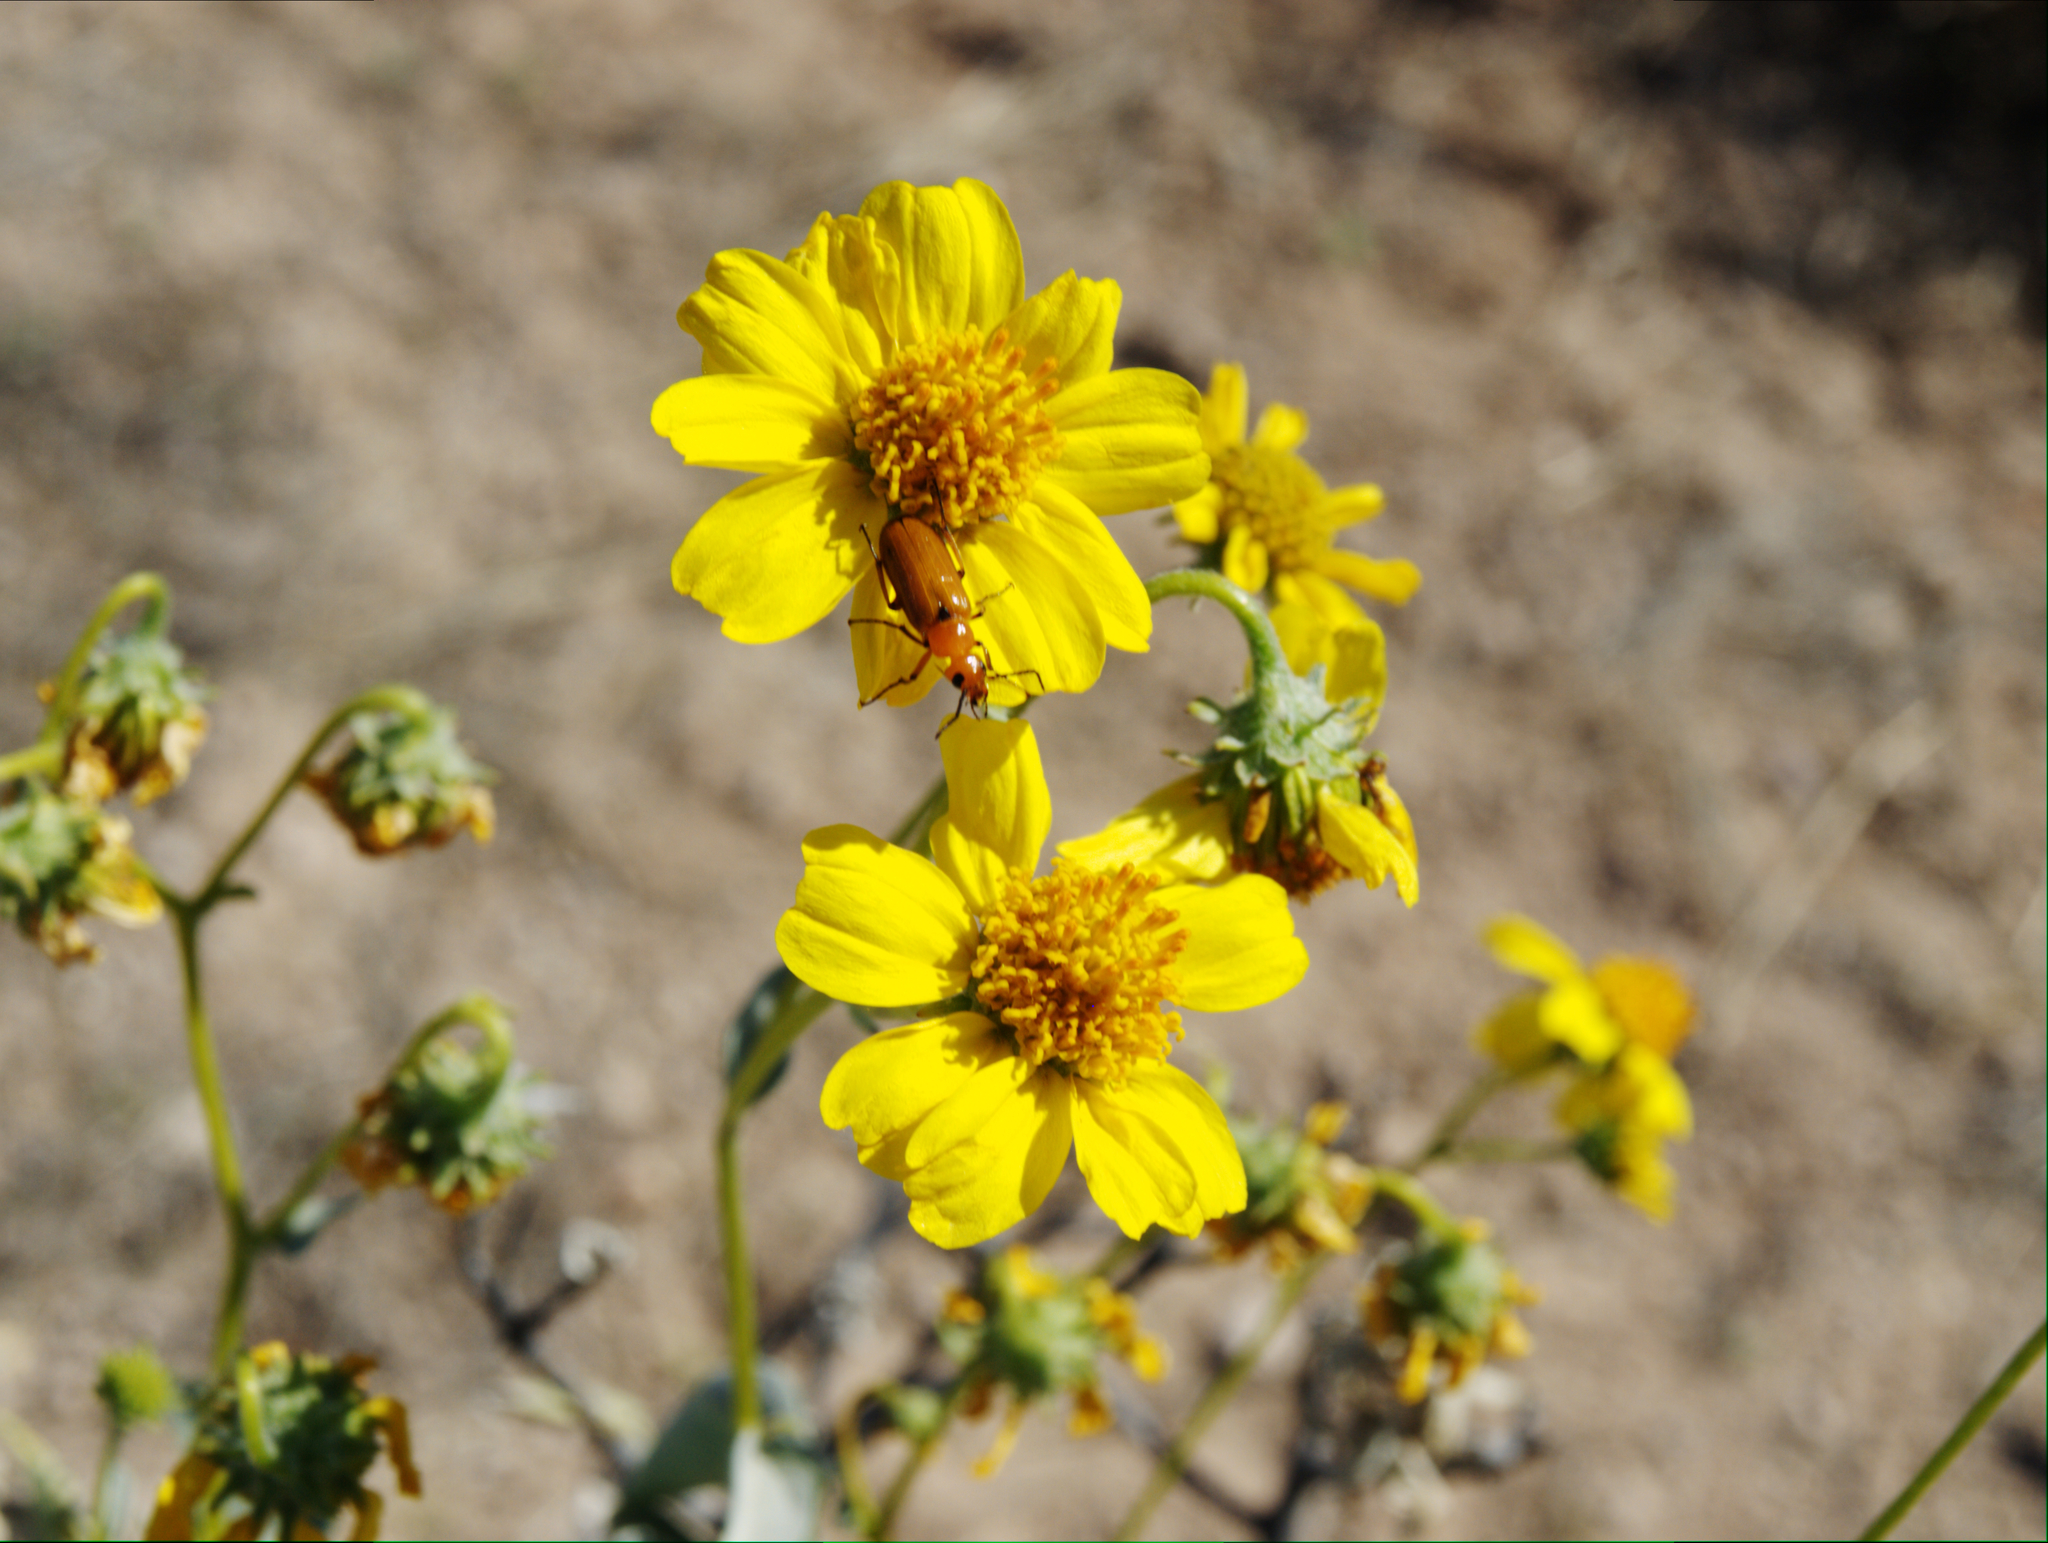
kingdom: Plantae
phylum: Tracheophyta
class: Magnoliopsida
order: Asterales
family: Asteraceae
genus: Encelia
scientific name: Encelia farinosa
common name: Brittlebush
